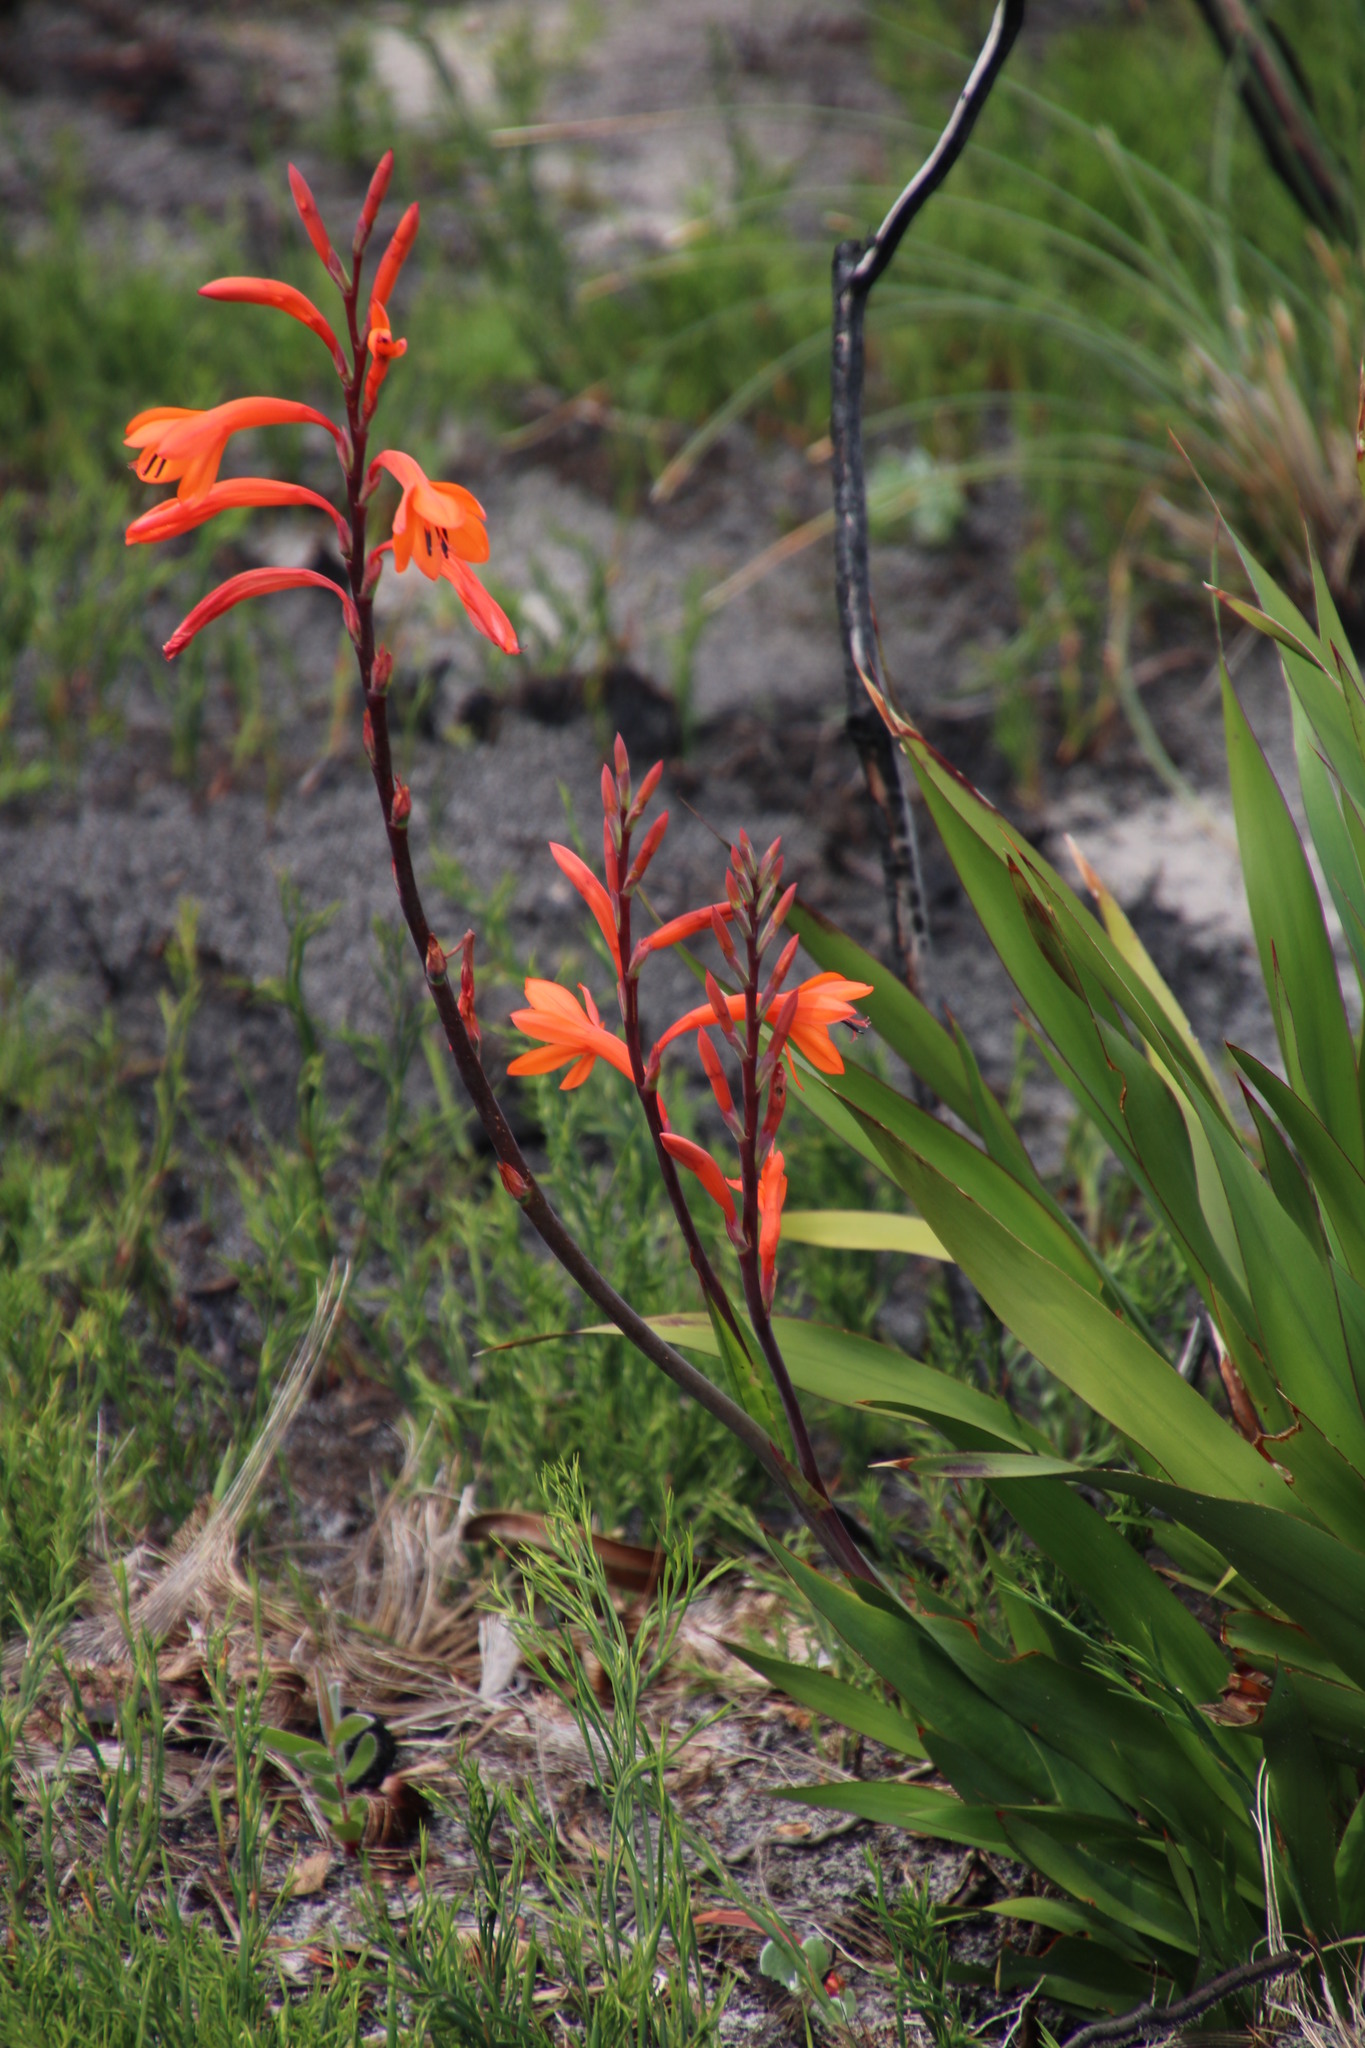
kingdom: Plantae
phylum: Tracheophyta
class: Liliopsida
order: Asparagales
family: Iridaceae
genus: Watsonia
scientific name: Watsonia meriana
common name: Bulbil bugle-lily
